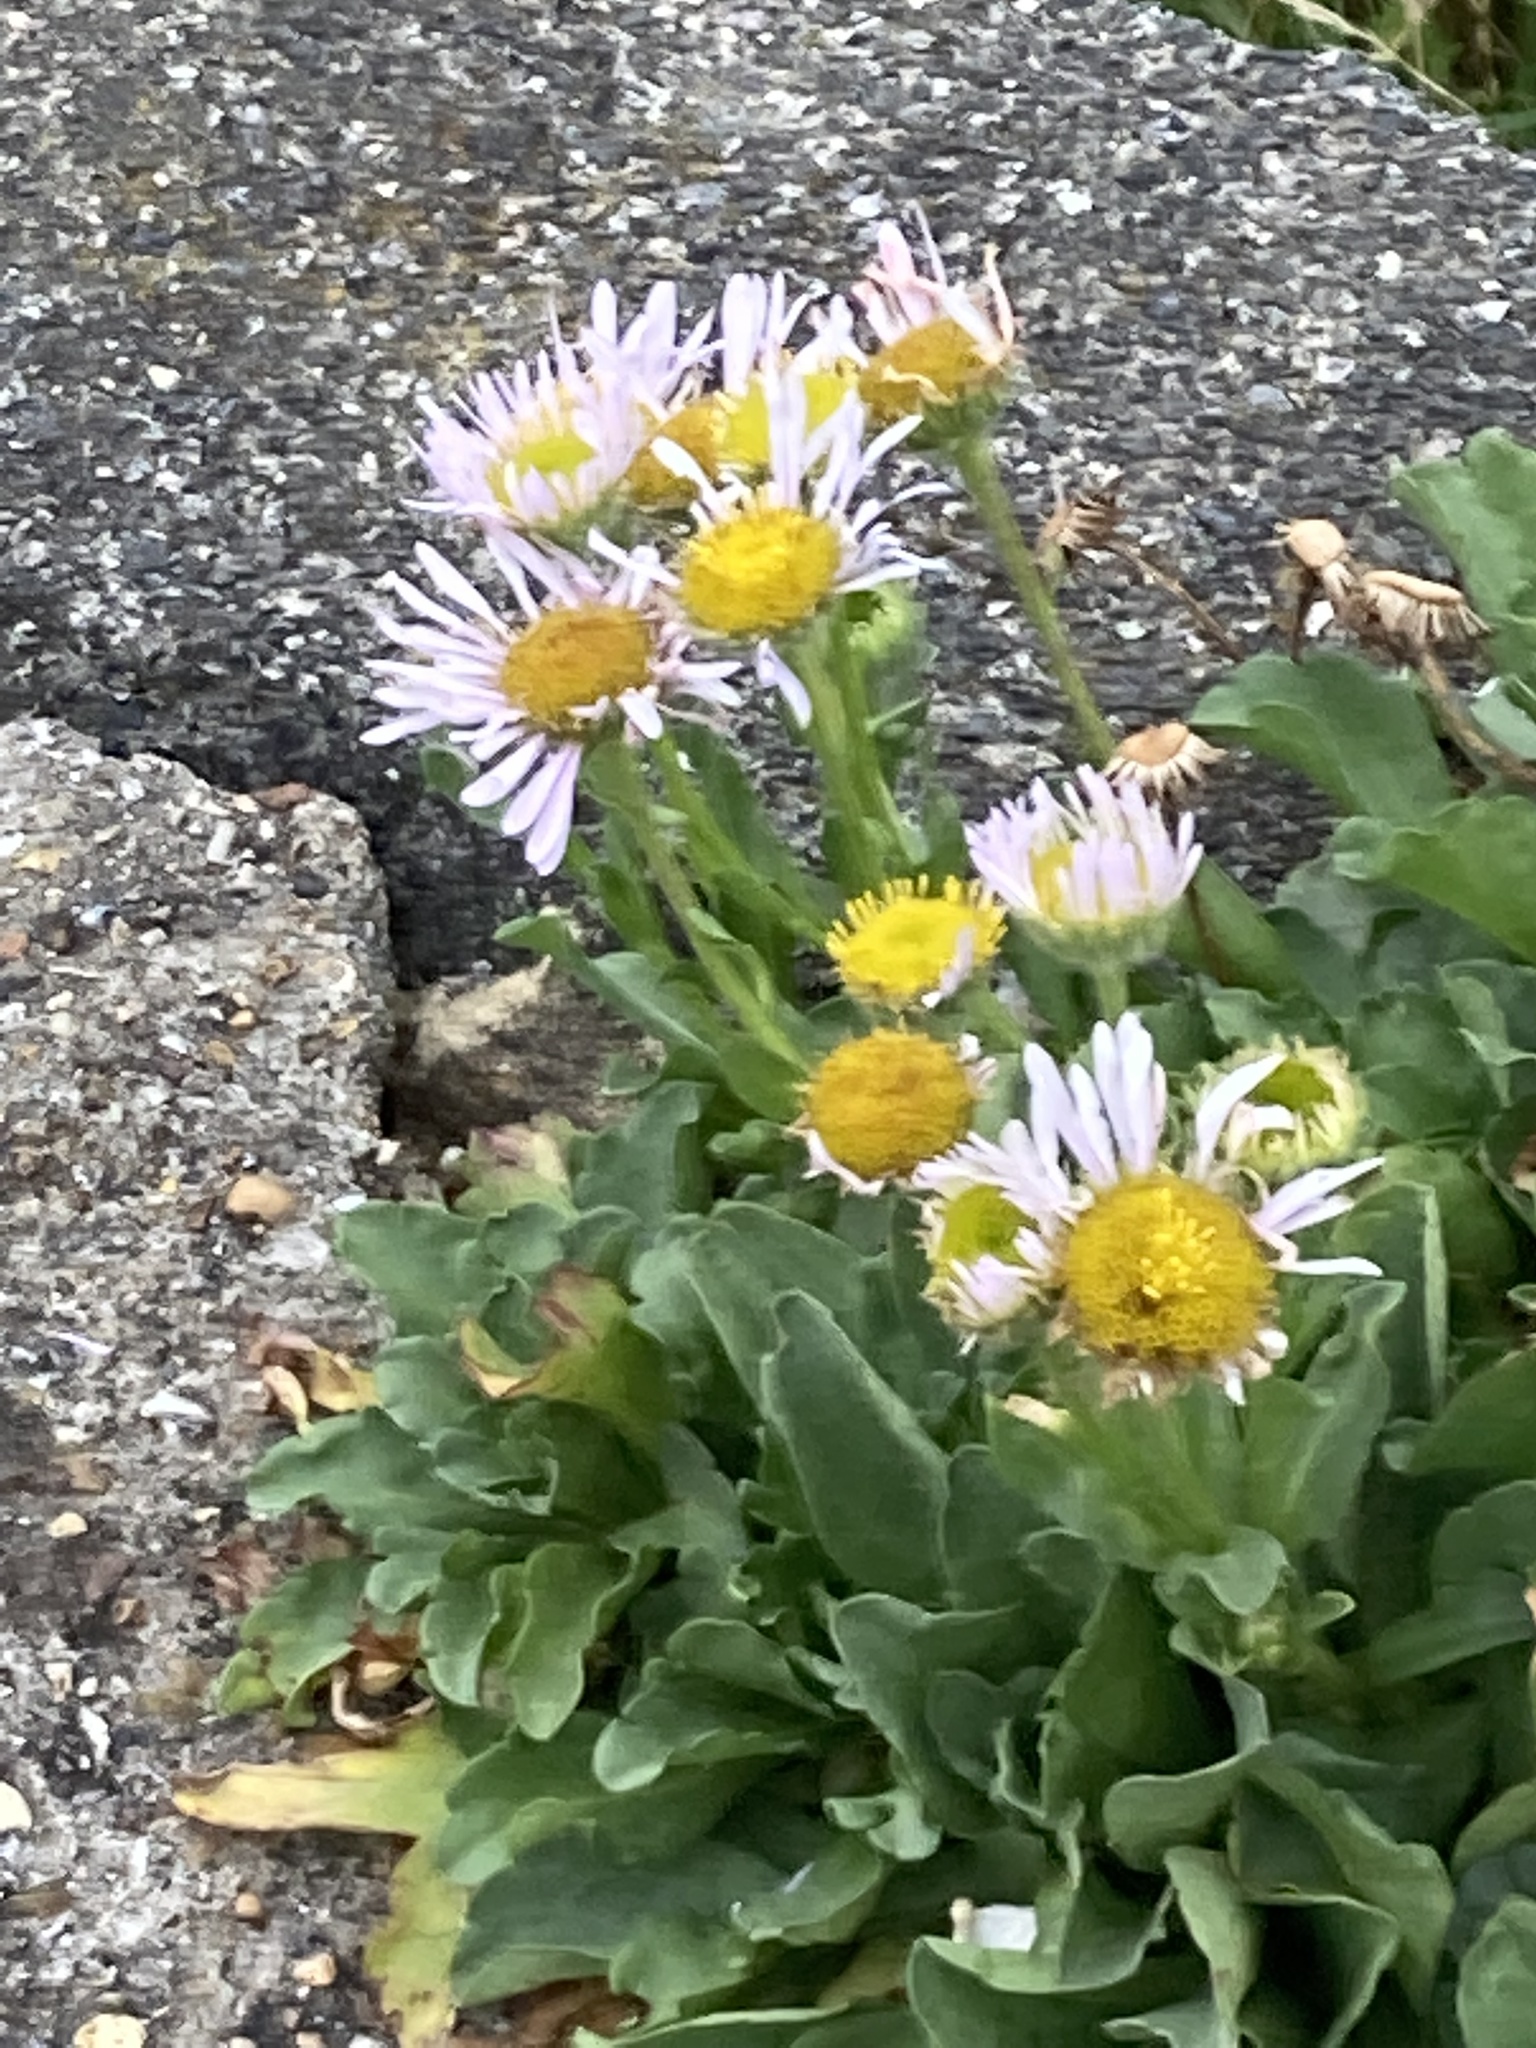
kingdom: Plantae
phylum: Tracheophyta
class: Magnoliopsida
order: Asterales
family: Asteraceae
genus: Erigeron
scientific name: Erigeron glaucus
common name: Seaside daisy
